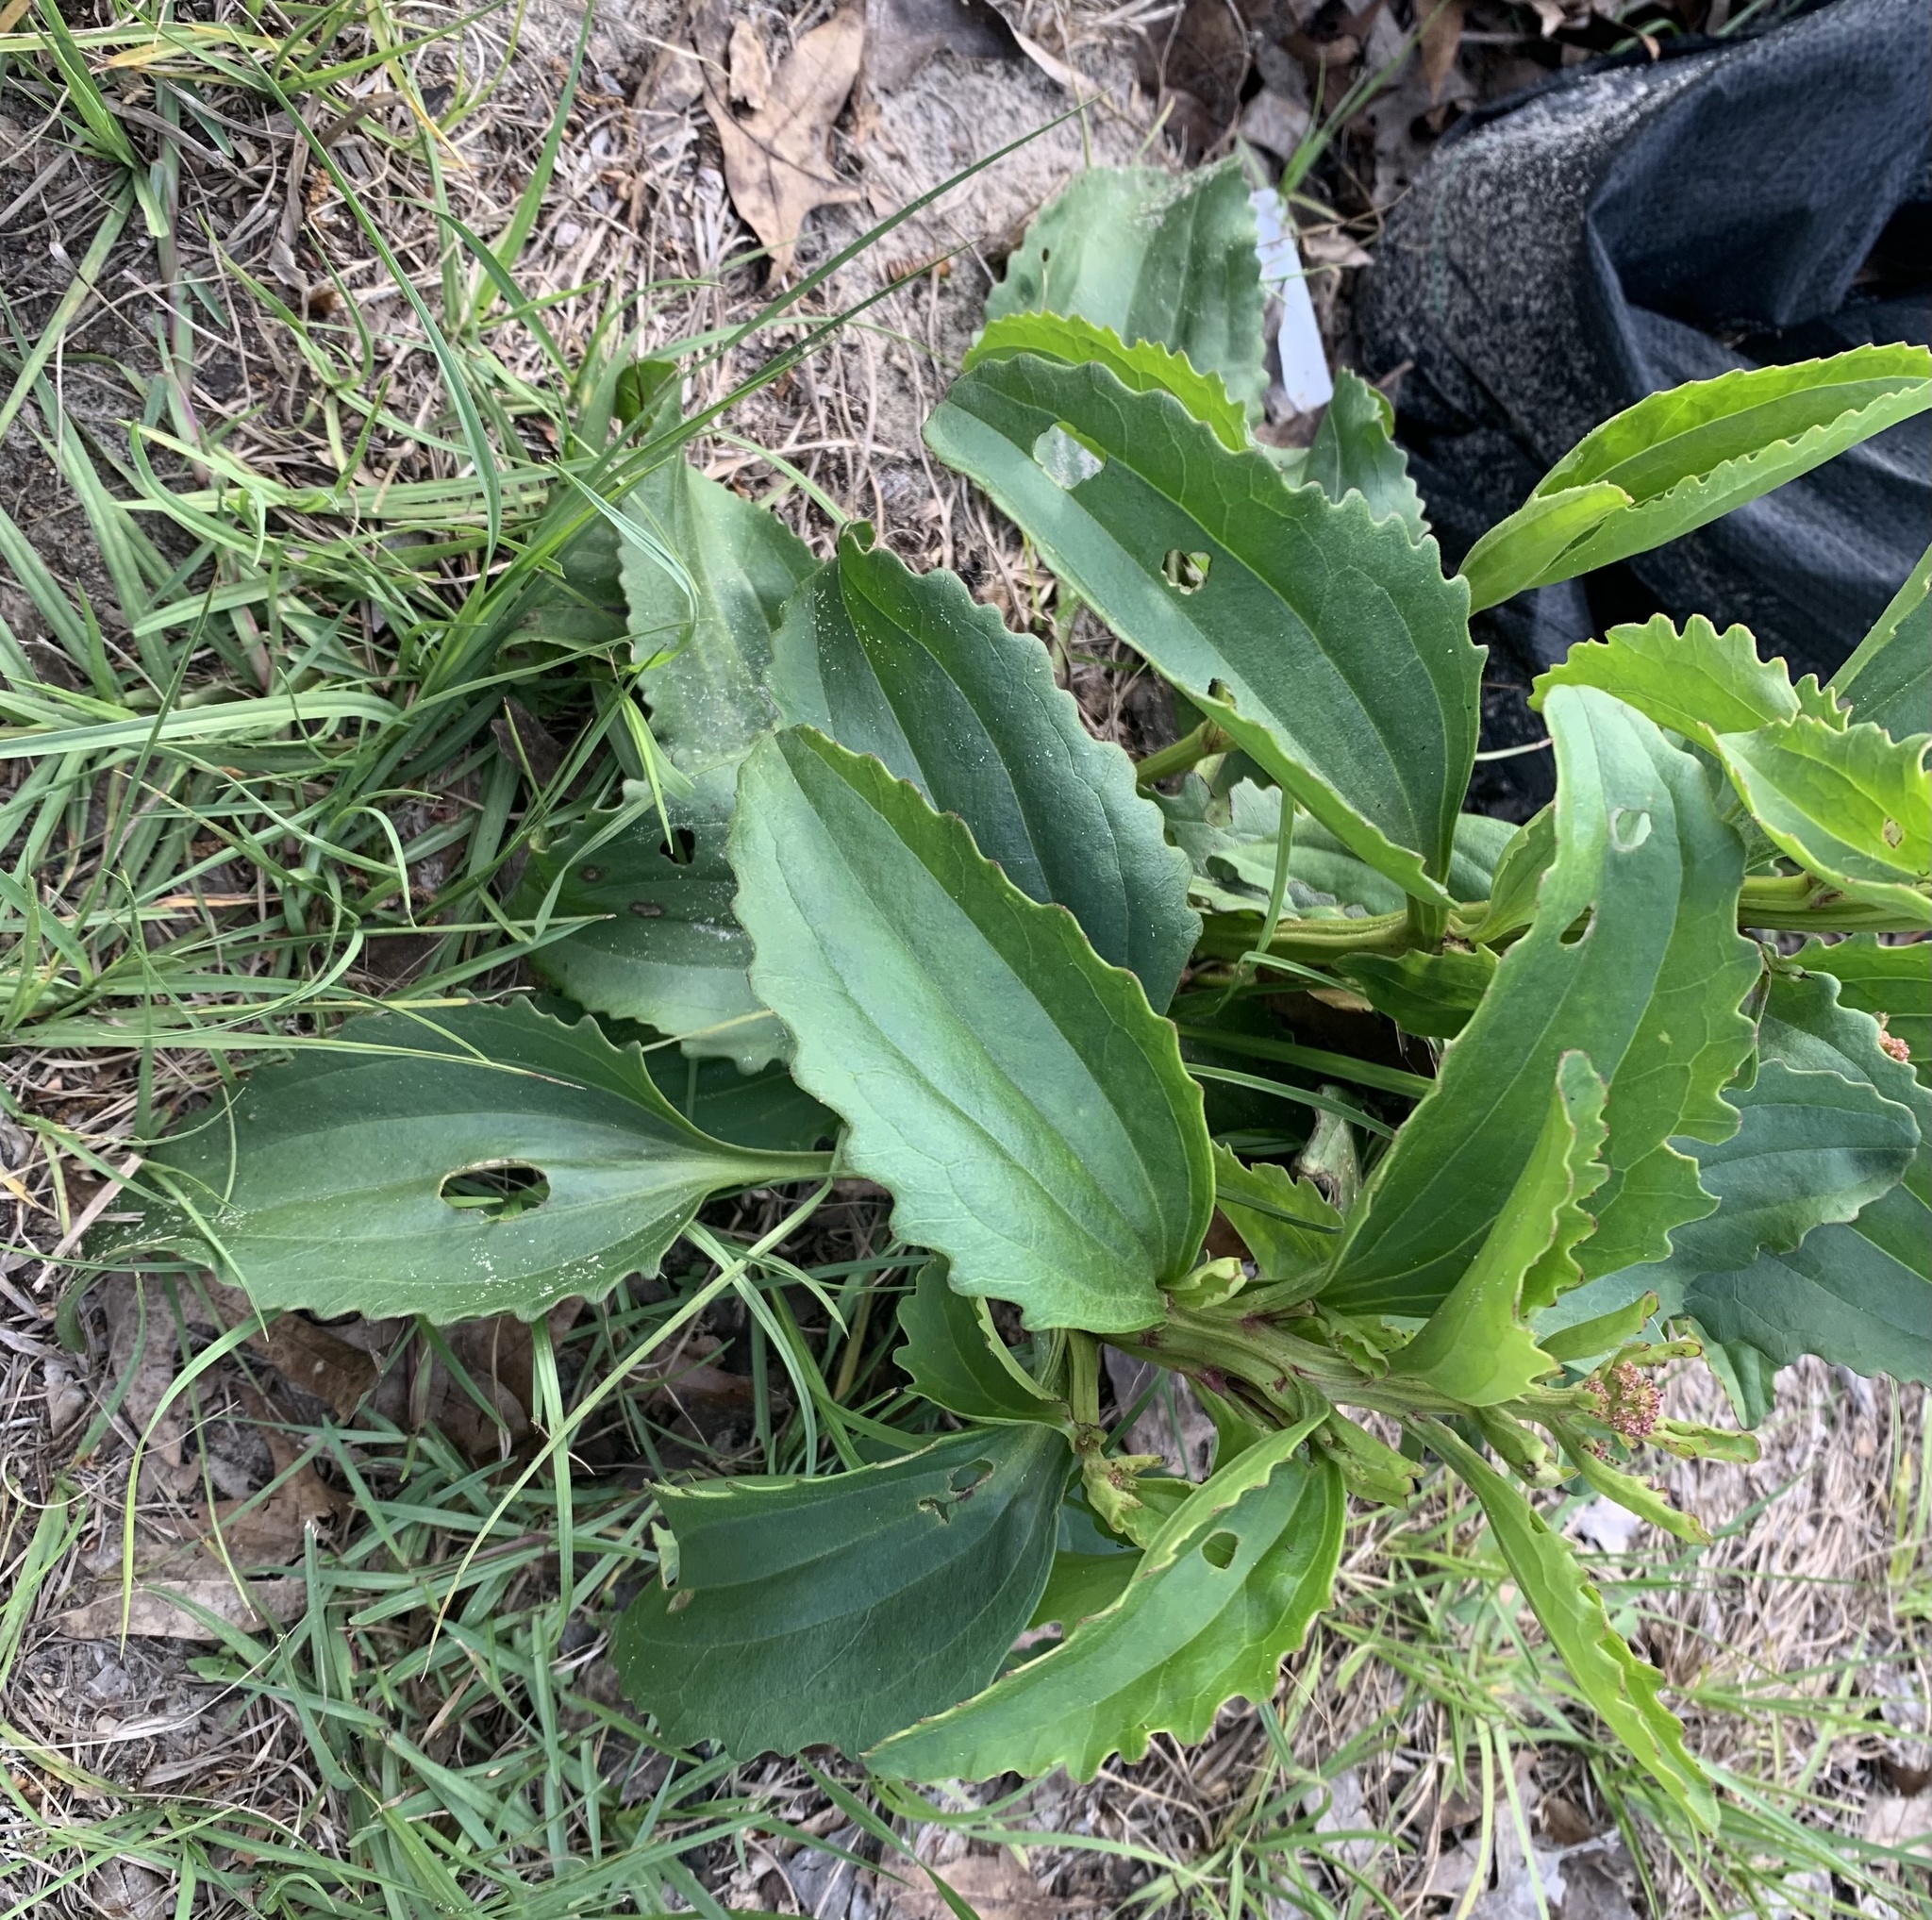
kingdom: Plantae
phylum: Tracheophyta
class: Magnoliopsida
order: Asterales
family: Asteraceae
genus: Arnoglossum
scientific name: Arnoglossum floridanum
